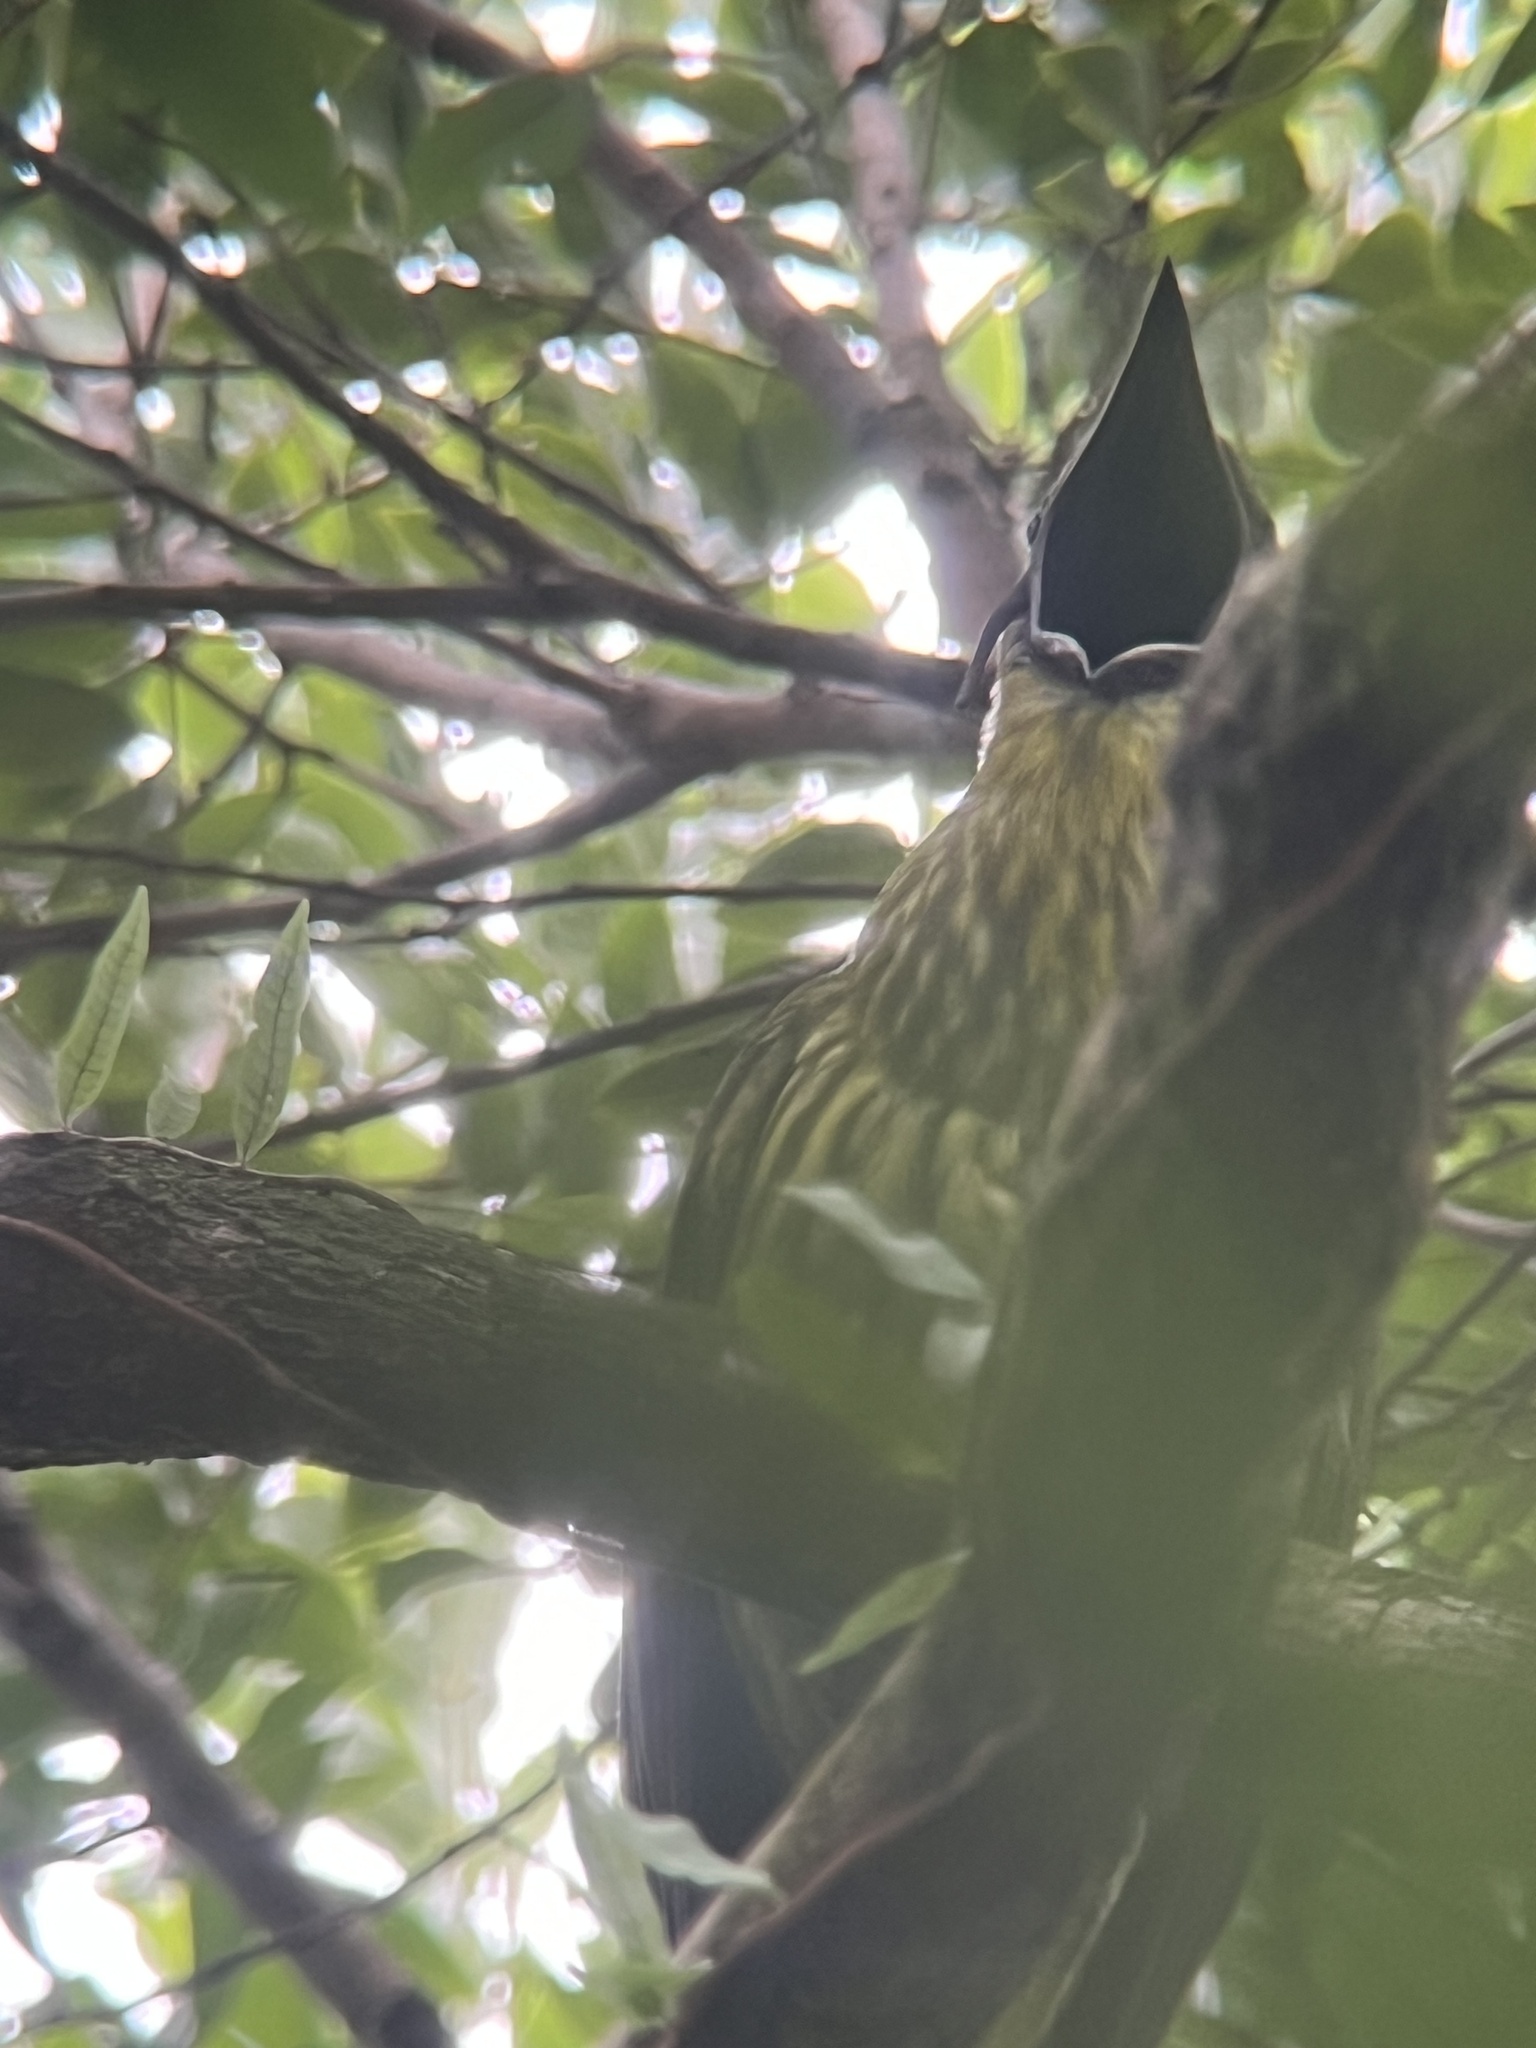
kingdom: Animalia
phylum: Chordata
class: Aves
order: Passeriformes
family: Cotingidae
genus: Procnias
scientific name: Procnias tricarunculatus
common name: Three-wattled bellbird
